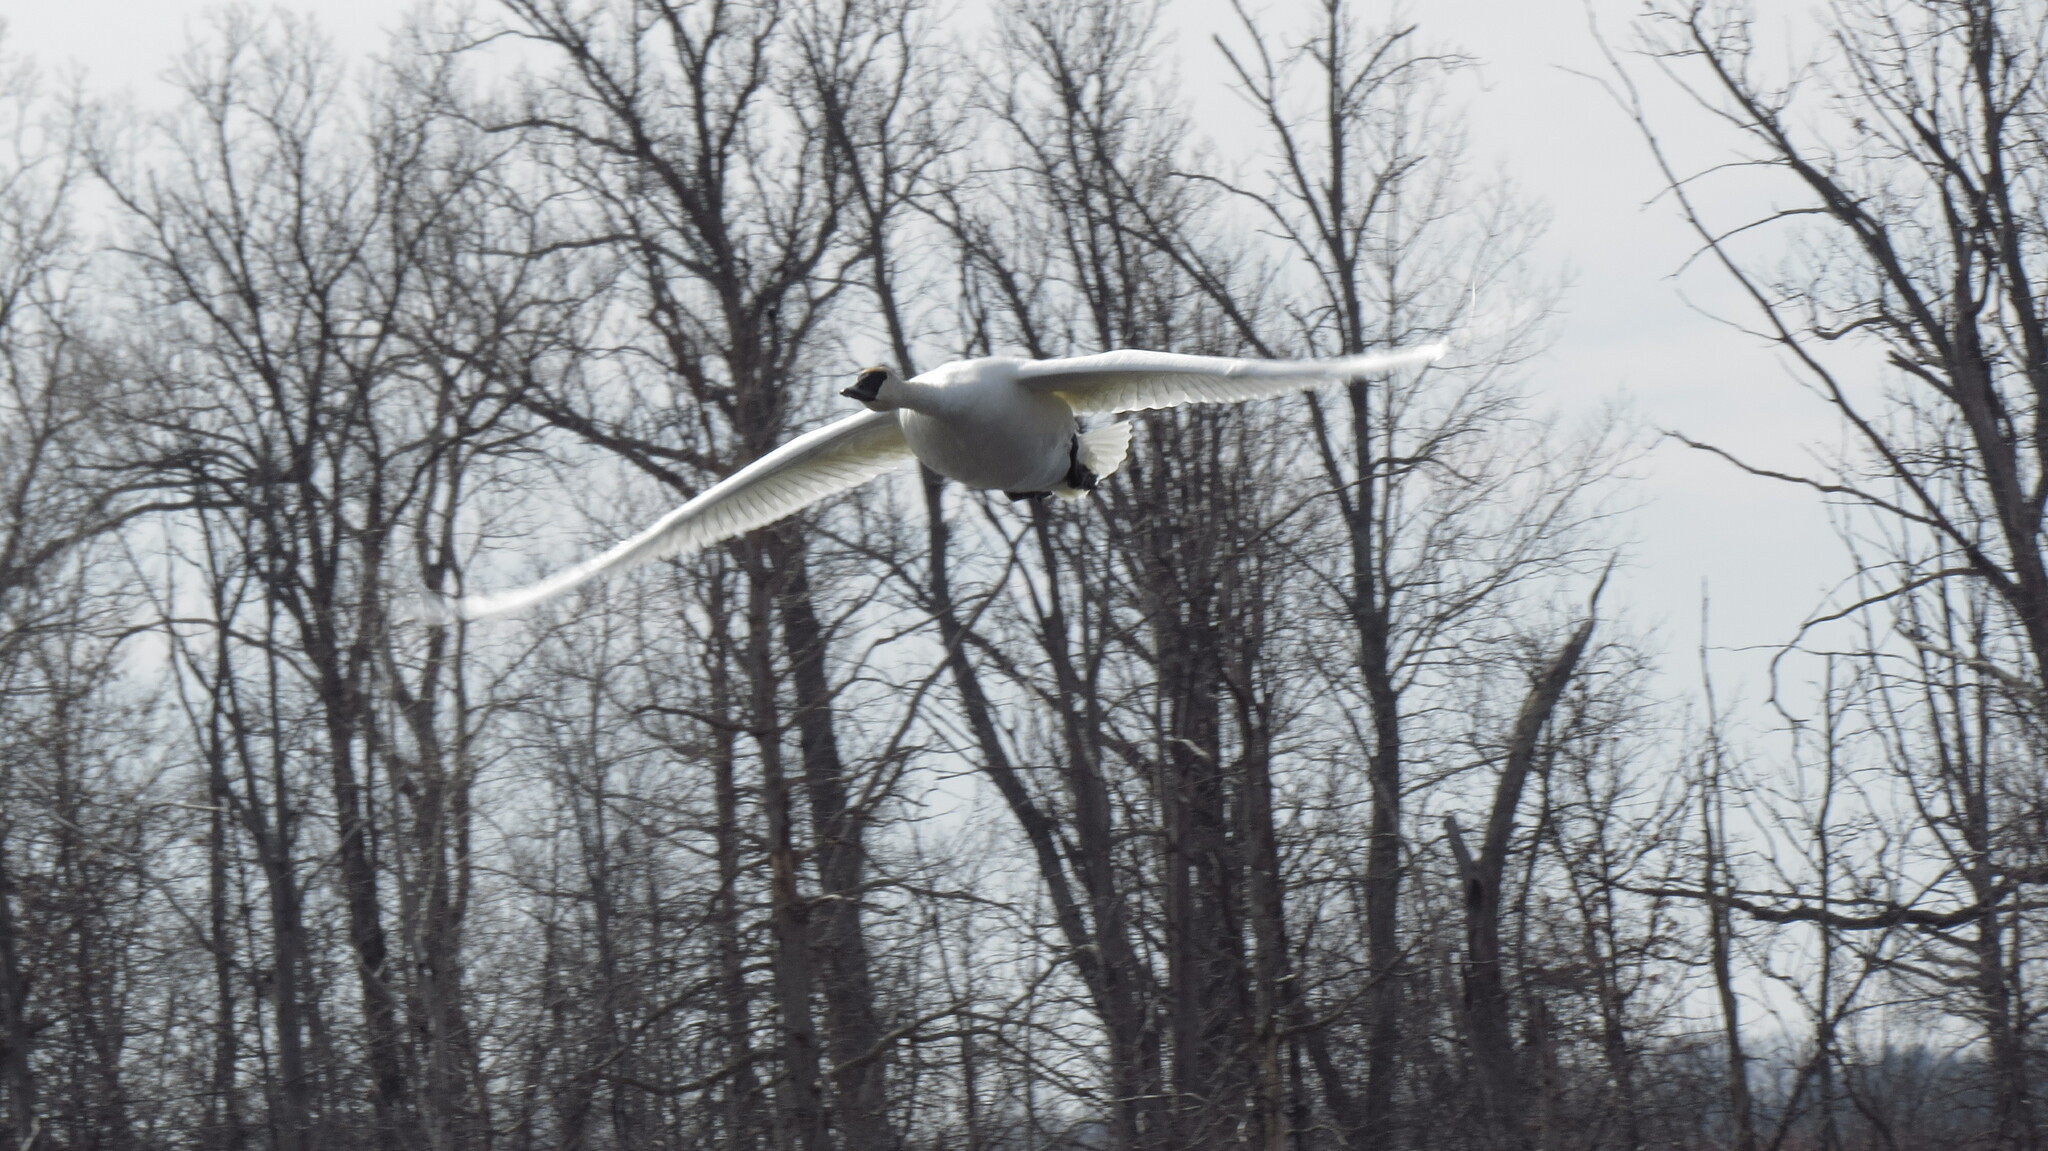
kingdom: Animalia
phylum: Chordata
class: Aves
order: Anseriformes
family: Anatidae
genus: Cygnus
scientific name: Cygnus buccinator
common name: Trumpeter swan
